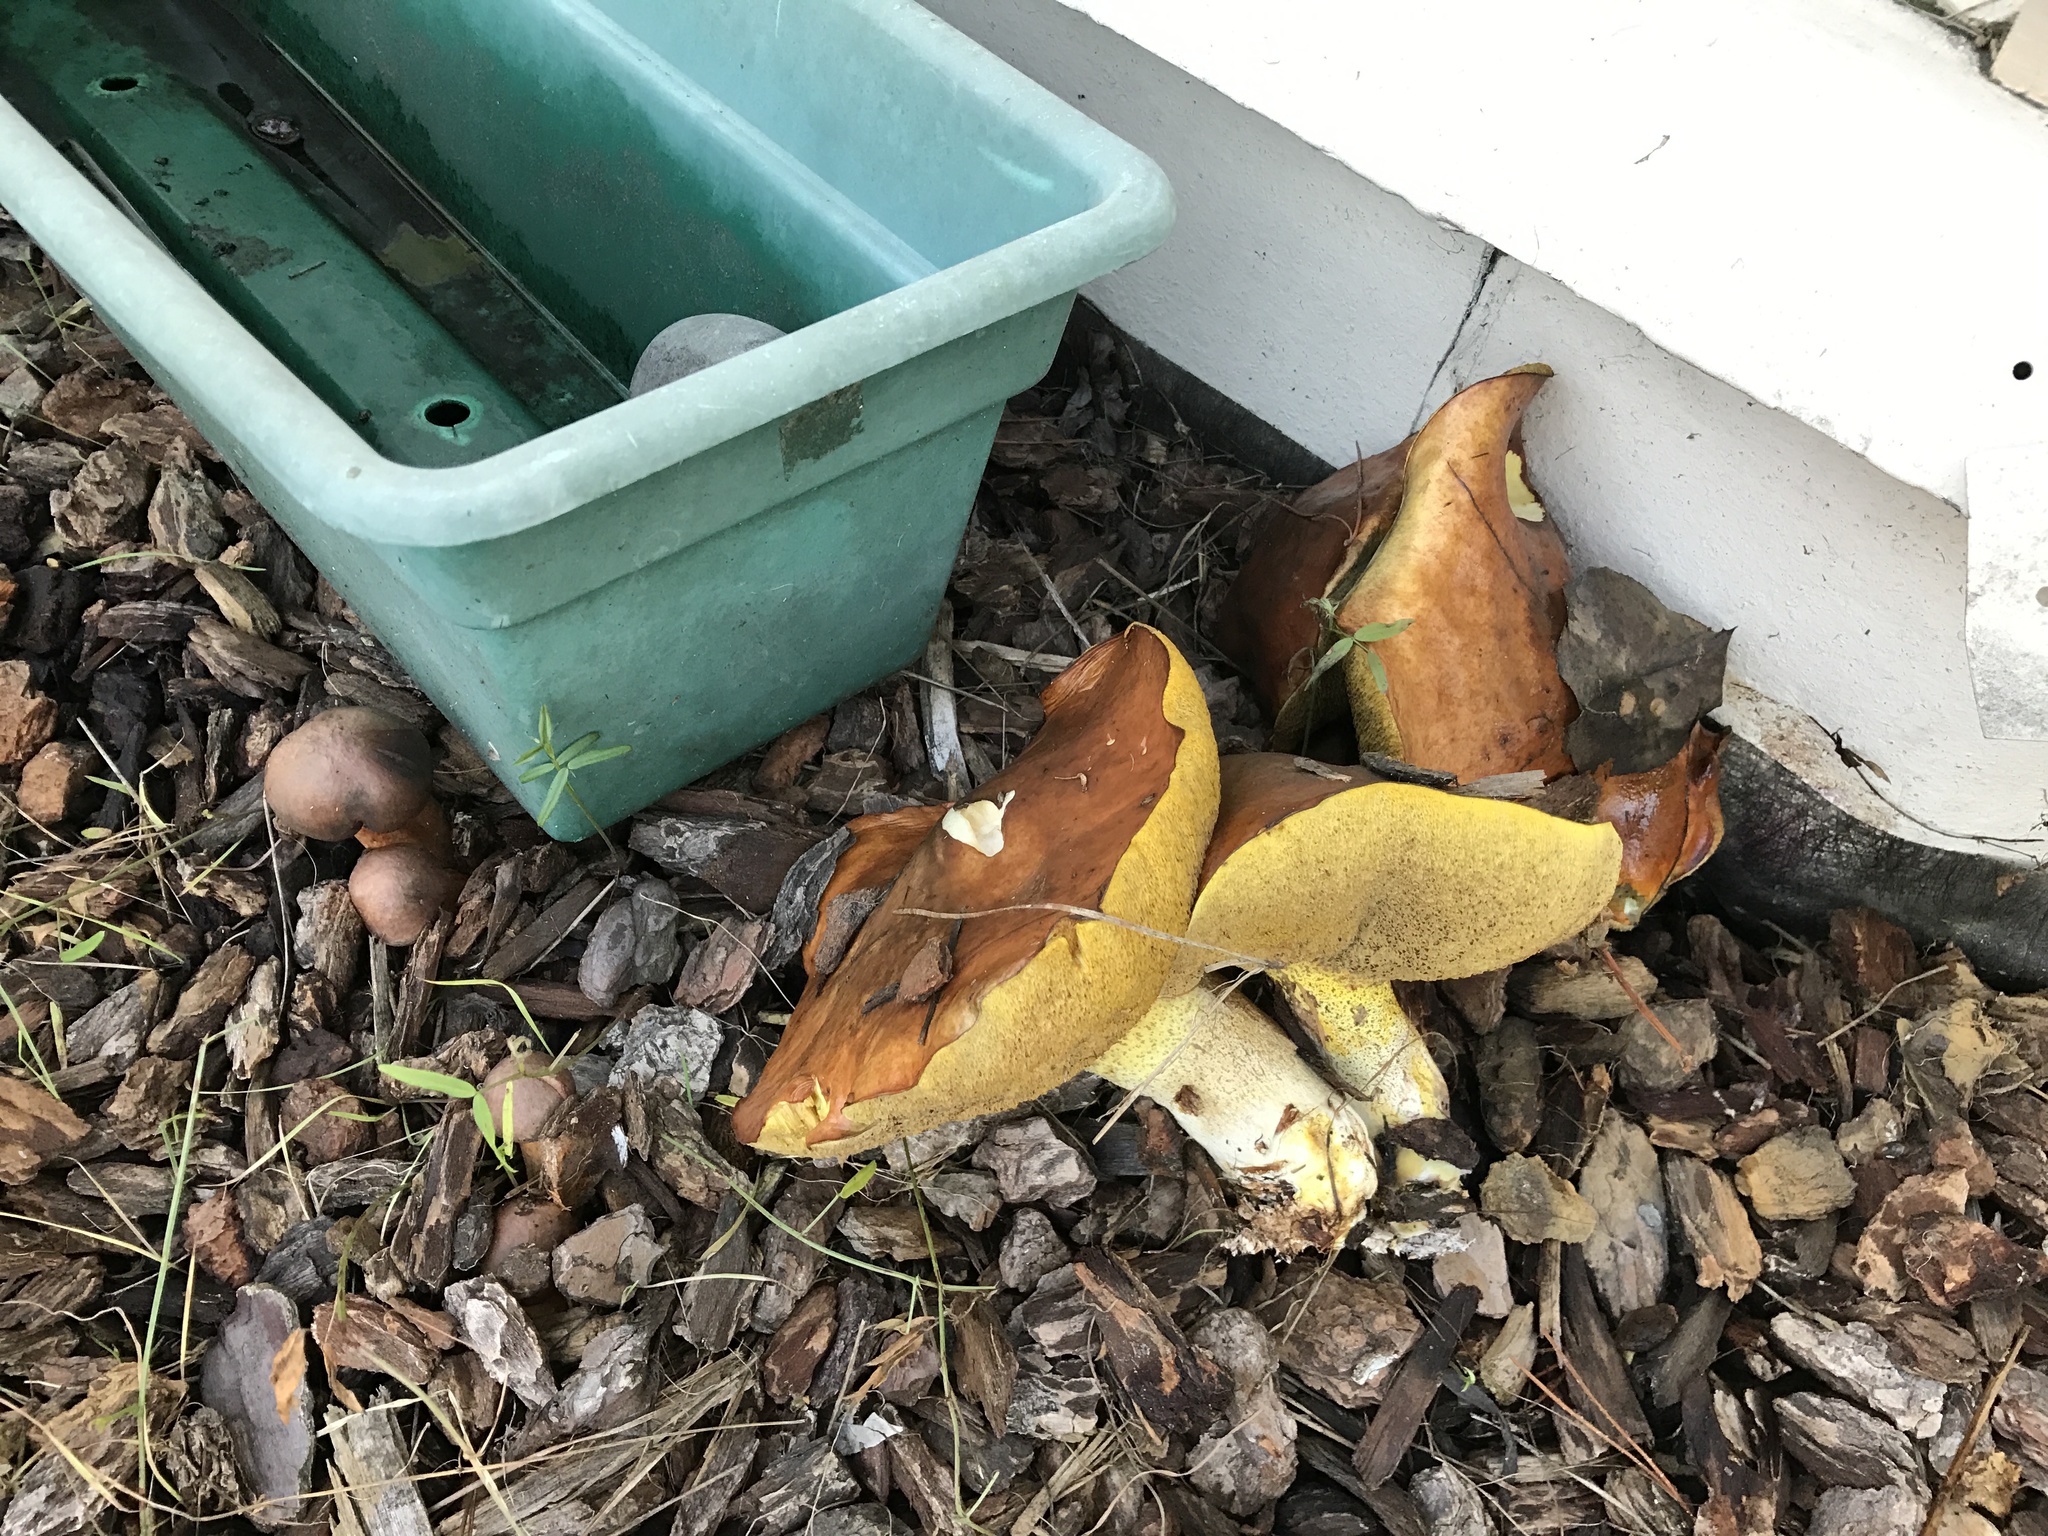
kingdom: Fungi
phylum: Basidiomycota
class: Agaricomycetes
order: Boletales
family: Suillaceae
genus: Suillus
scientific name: Suillus pungens
